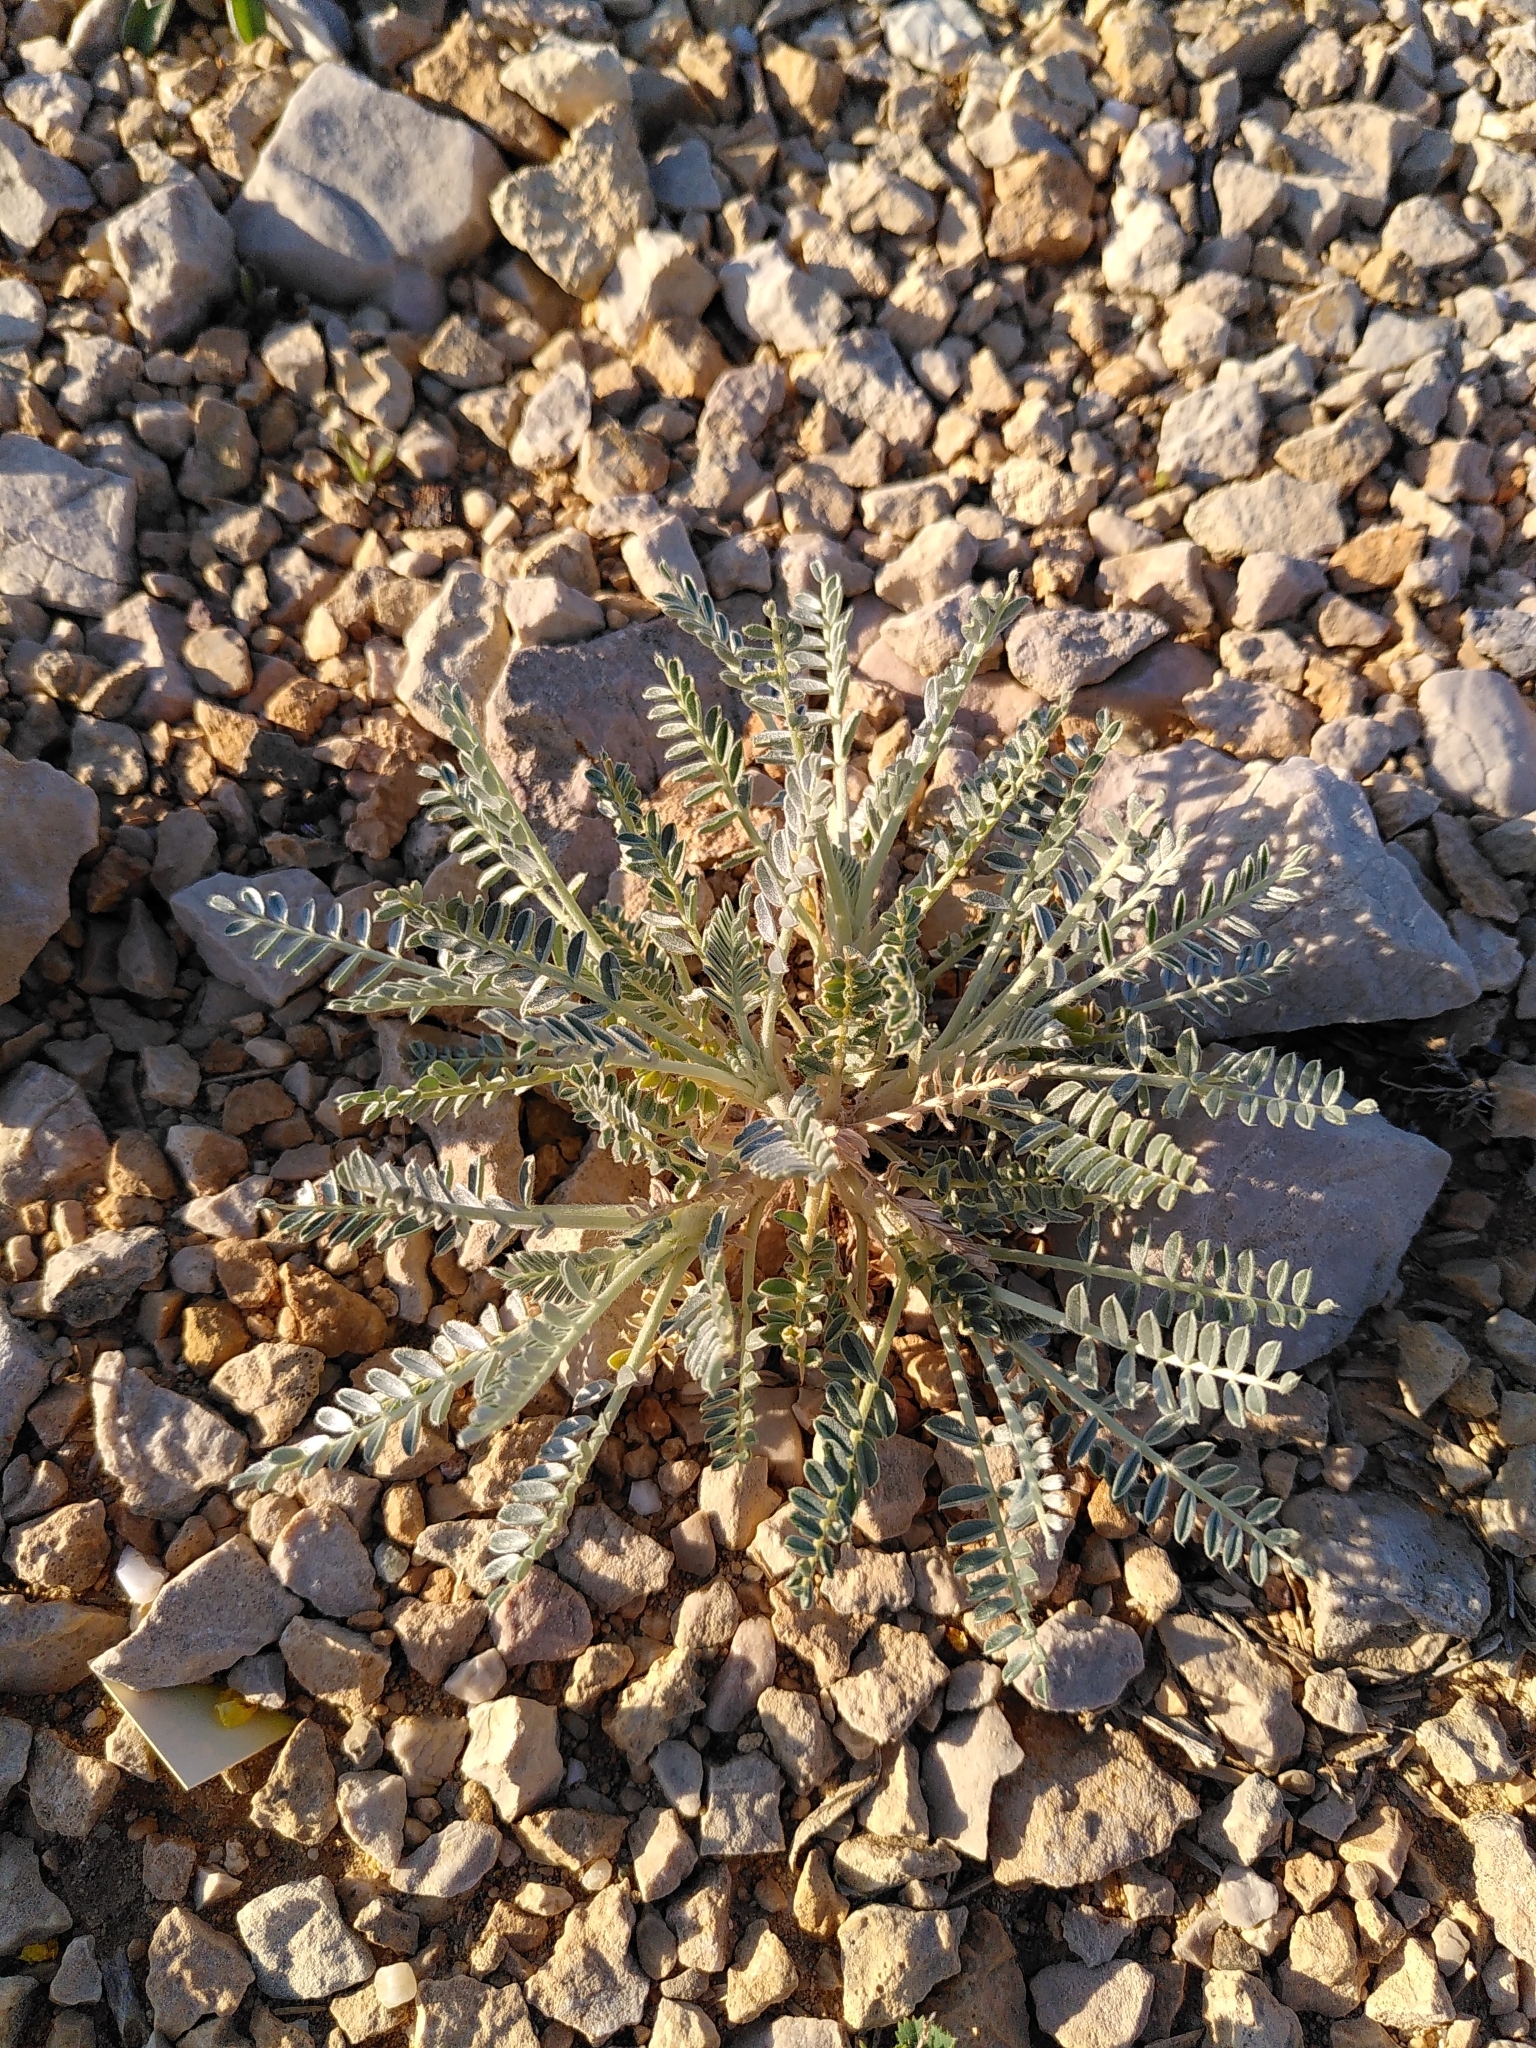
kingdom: Plantae
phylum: Tracheophyta
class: Magnoliopsida
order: Fabales
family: Fabaceae
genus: Astragalus
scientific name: Astragalus tragacantha
